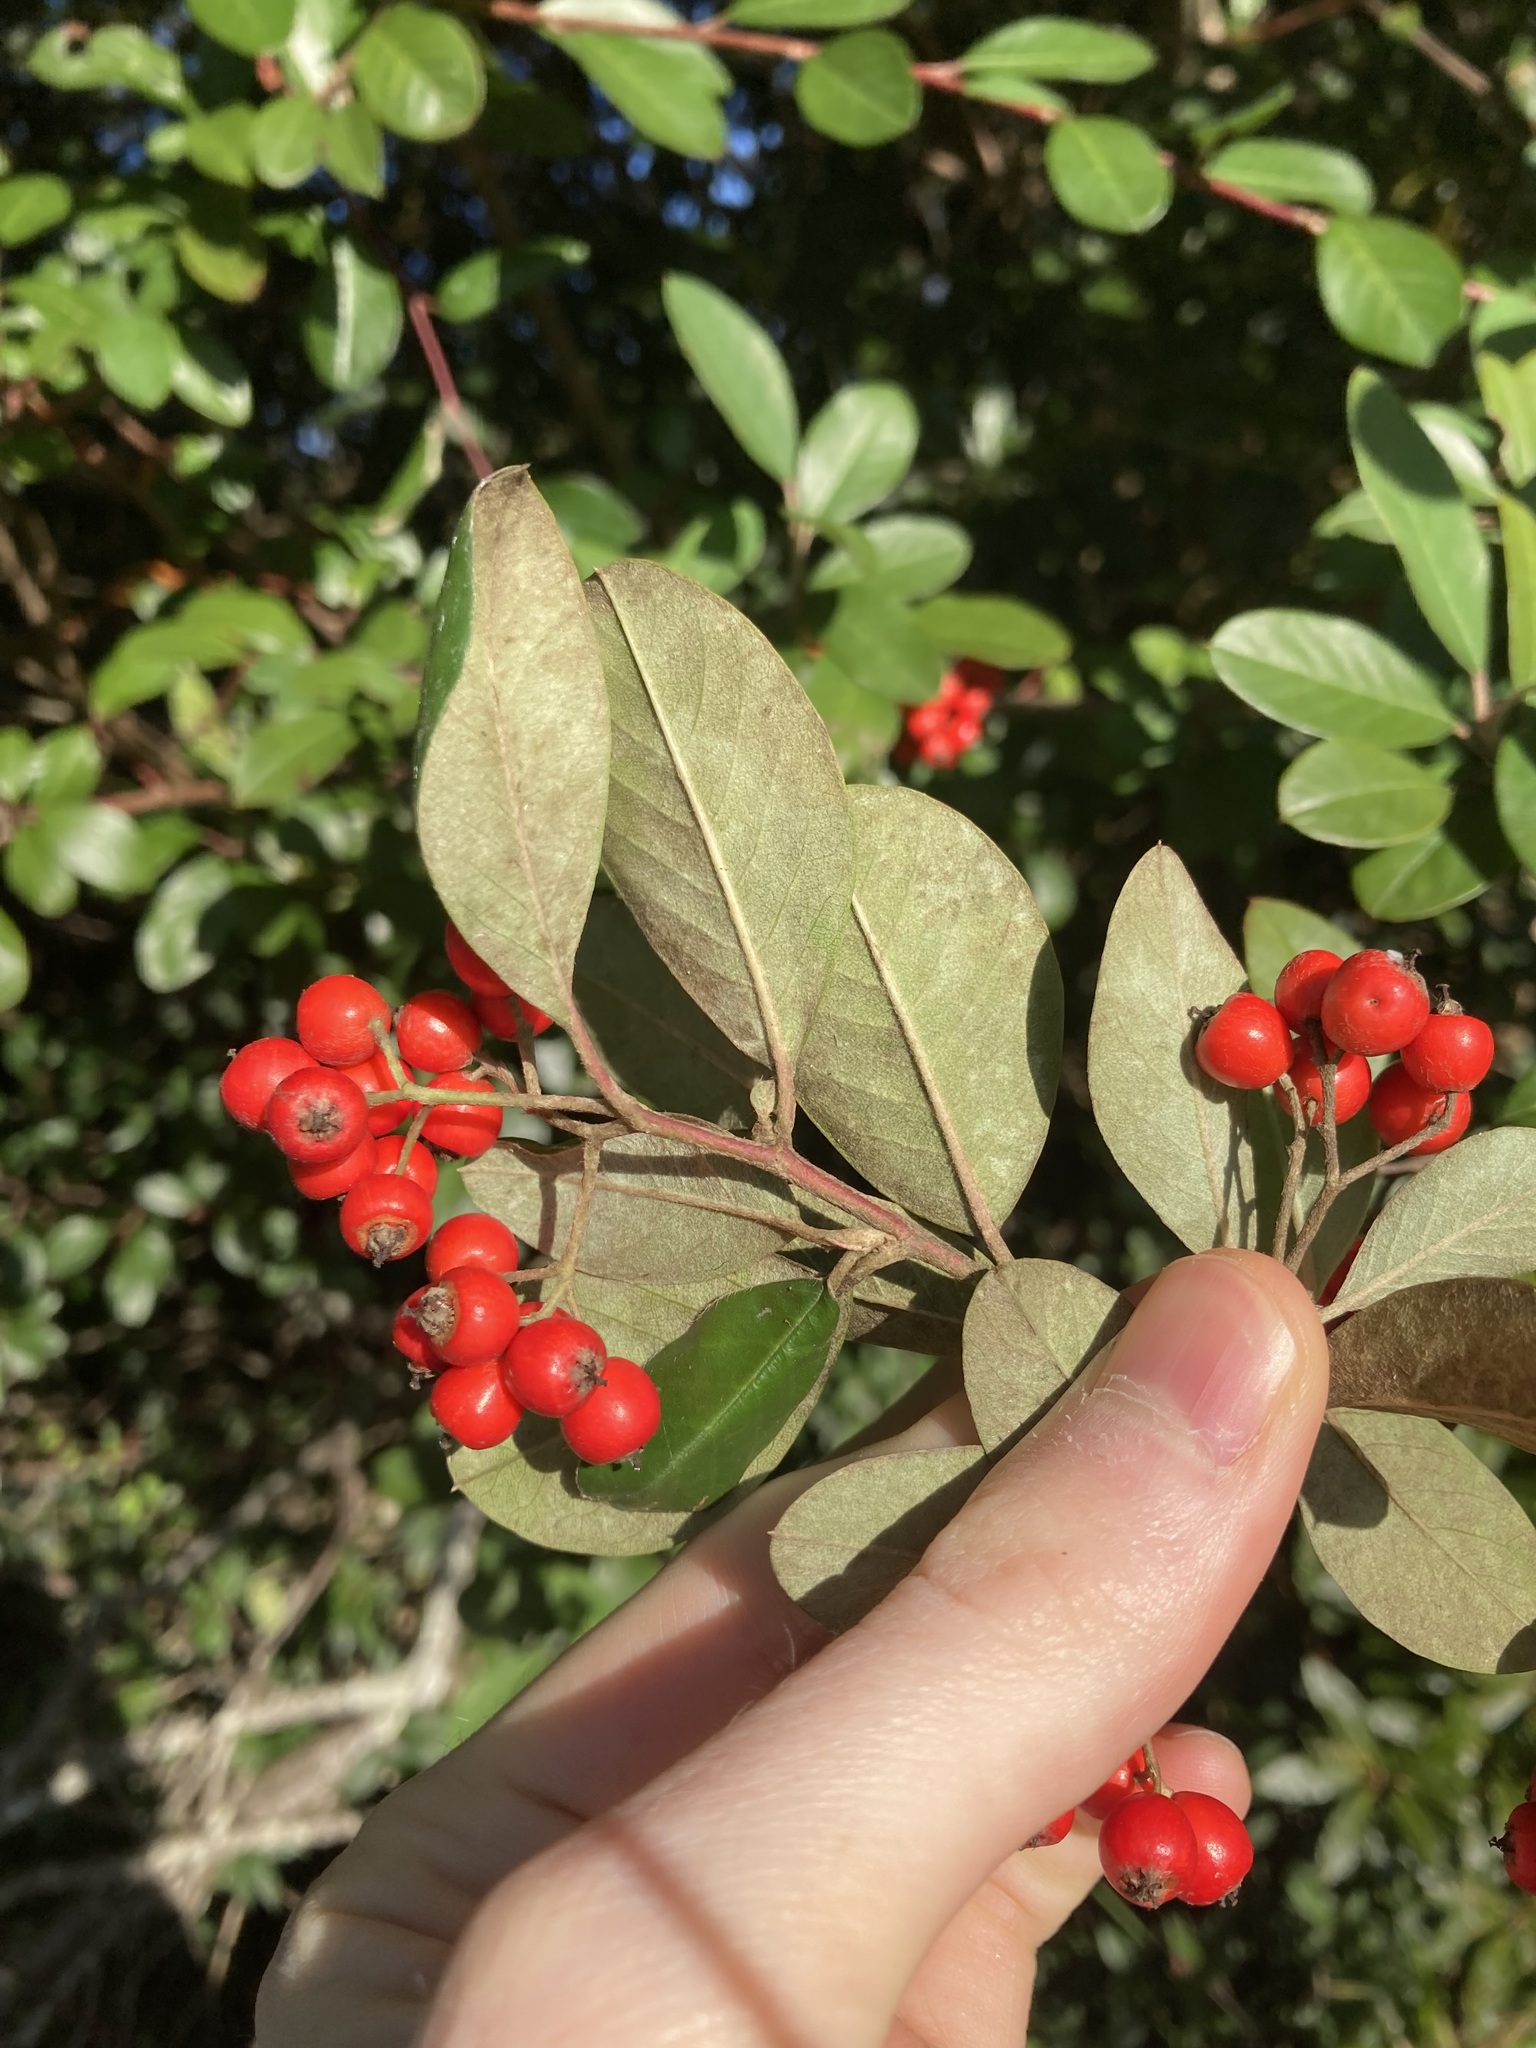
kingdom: Plantae
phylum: Tracheophyta
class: Magnoliopsida
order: Rosales
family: Rosaceae
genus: Cotoneaster
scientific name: Cotoneaster glaucophyllus
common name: Glaucous cotoneaster
